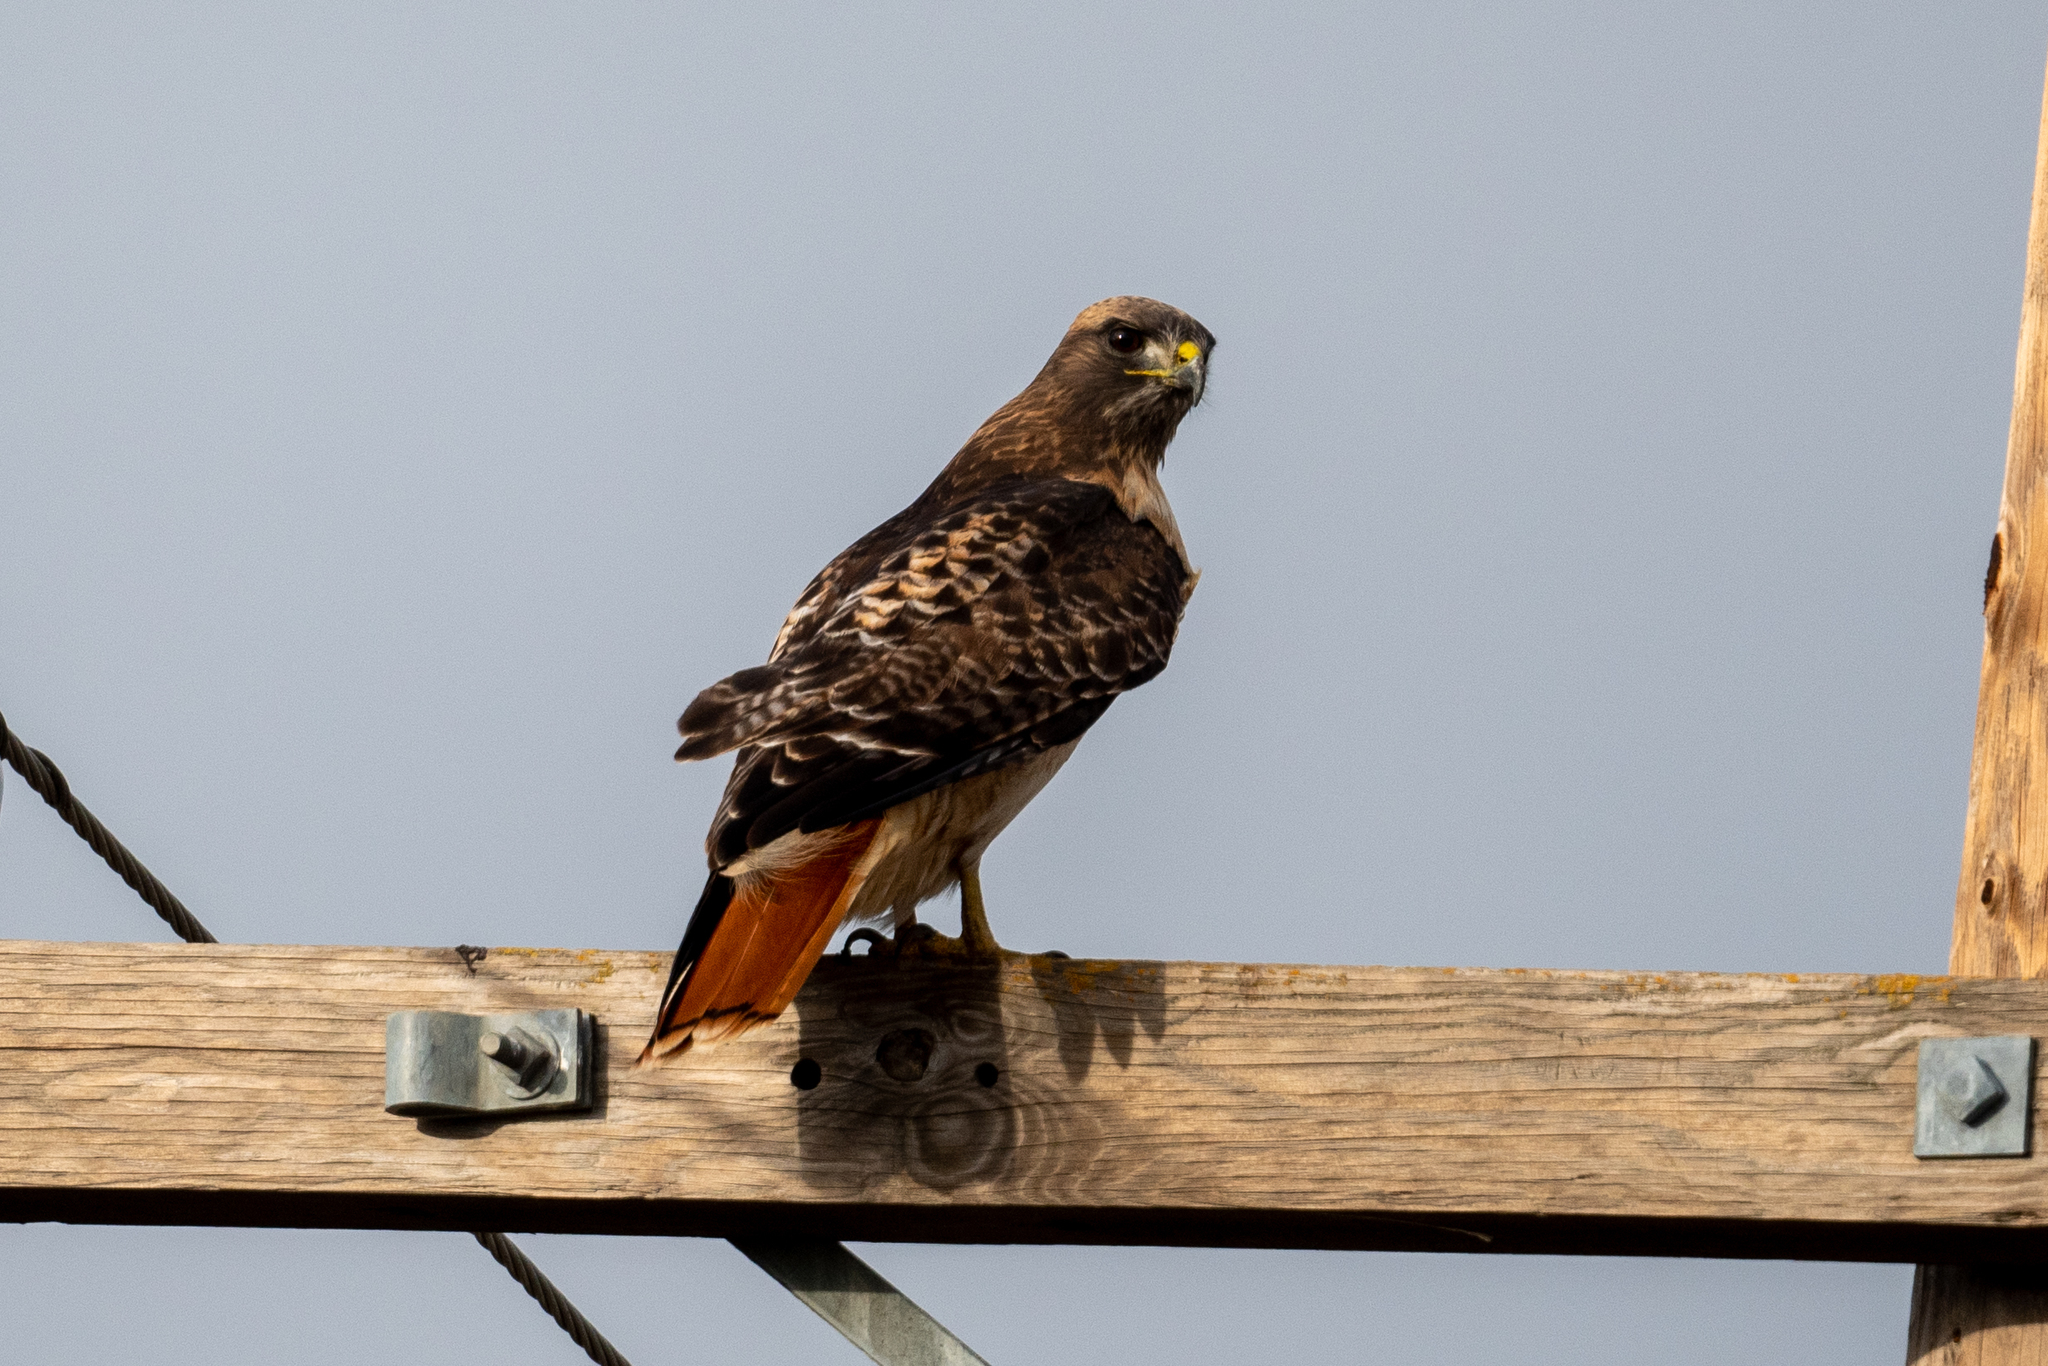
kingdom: Animalia
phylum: Chordata
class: Aves
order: Accipitriformes
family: Accipitridae
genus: Buteo
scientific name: Buteo jamaicensis
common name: Red-tailed hawk
